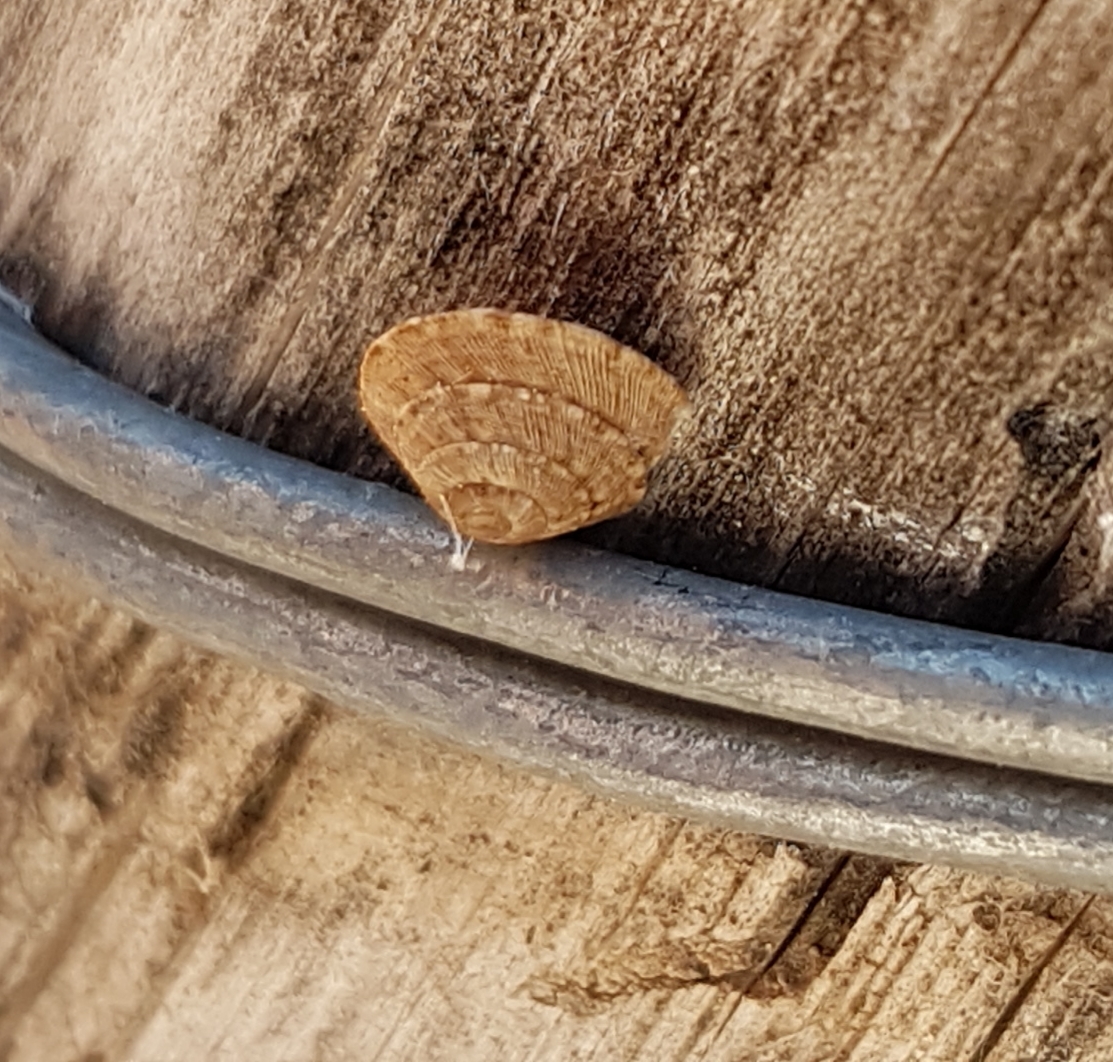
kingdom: Animalia
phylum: Mollusca
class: Gastropoda
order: Stylommatophora
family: Geomitridae
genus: Trochoidea
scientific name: Trochoidea elegans
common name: Elegant helicellid
